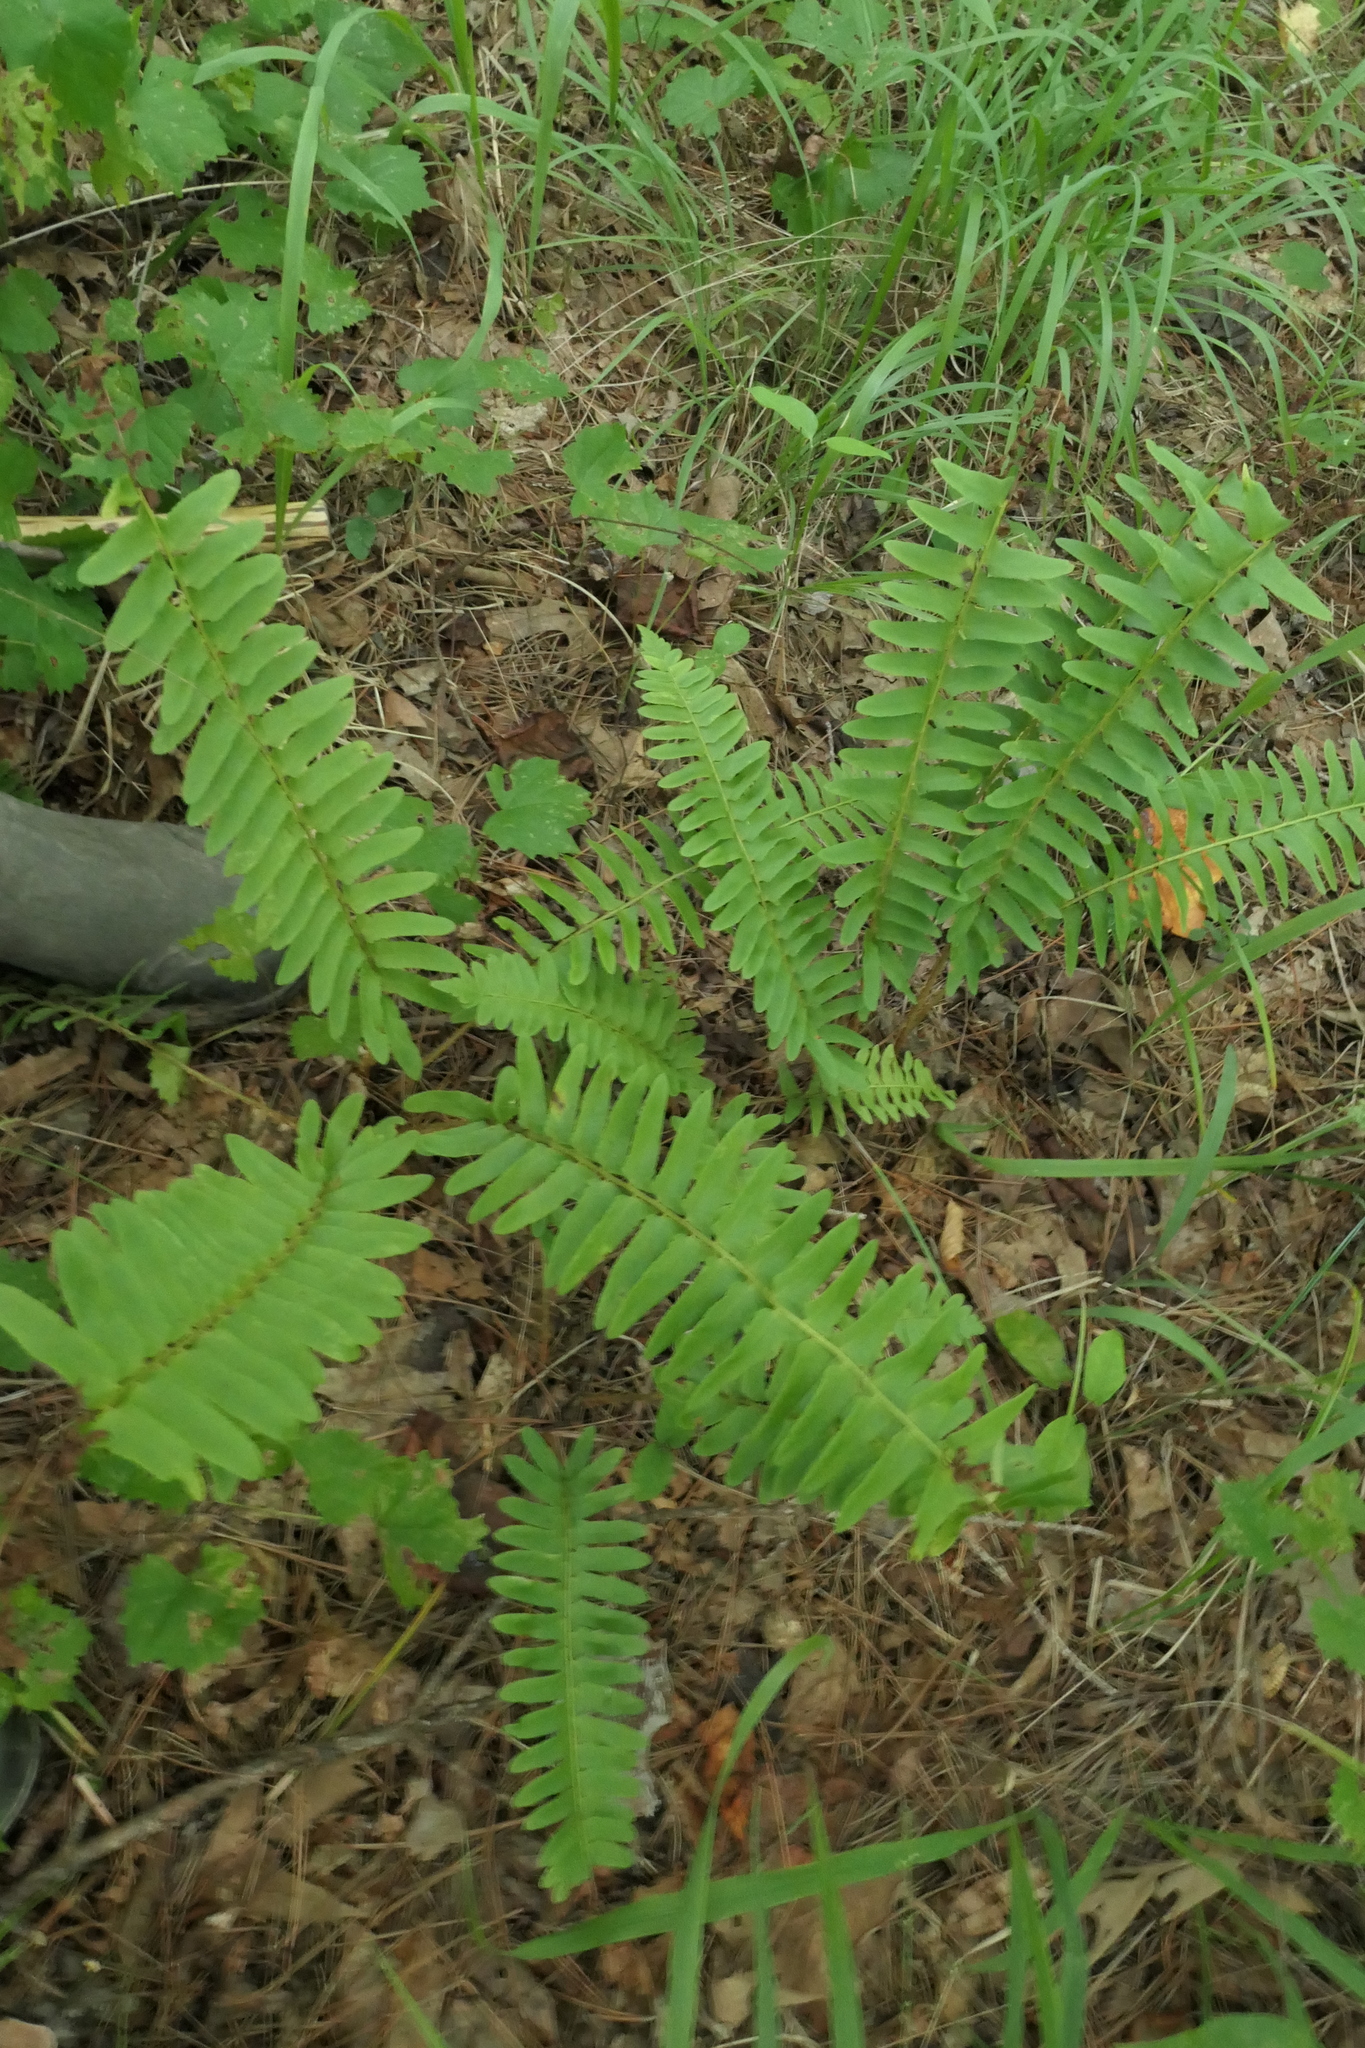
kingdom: Plantae
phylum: Tracheophyta
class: Polypodiopsida
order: Polypodiales
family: Dryopteridaceae
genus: Polystichum
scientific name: Polystichum acrostichoides
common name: Christmas fern
